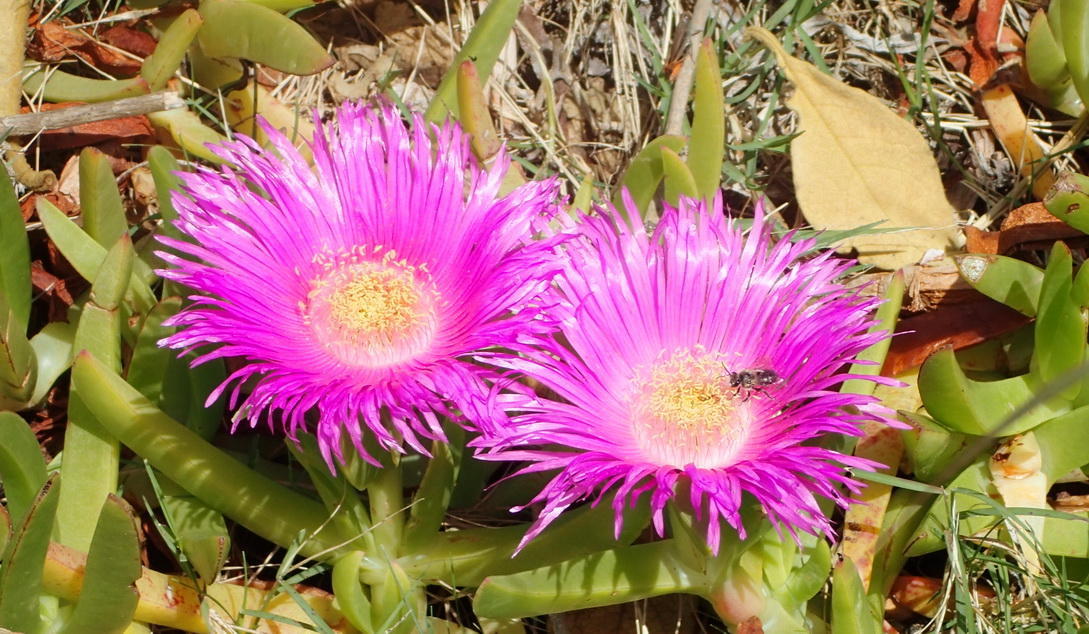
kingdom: Plantae
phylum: Tracheophyta
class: Magnoliopsida
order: Caryophyllales
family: Aizoaceae
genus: Carpobrotus
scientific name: Carpobrotus deliciosus
